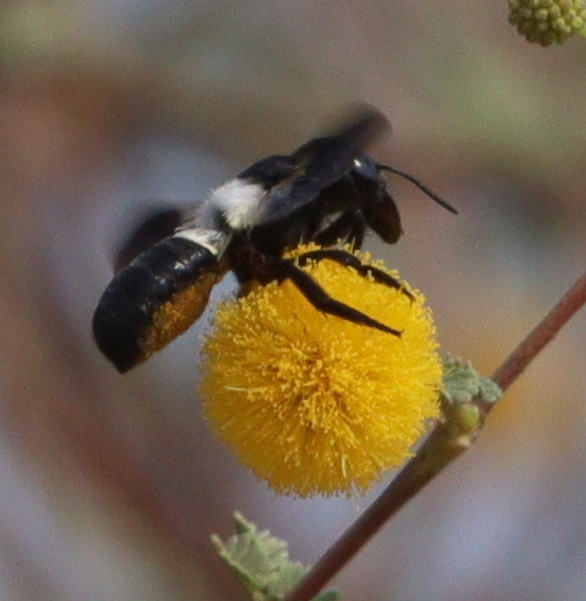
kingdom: Animalia
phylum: Arthropoda
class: Insecta
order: Hymenoptera
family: Megachilidae
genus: Megachile
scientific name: Megachile maxillosa
